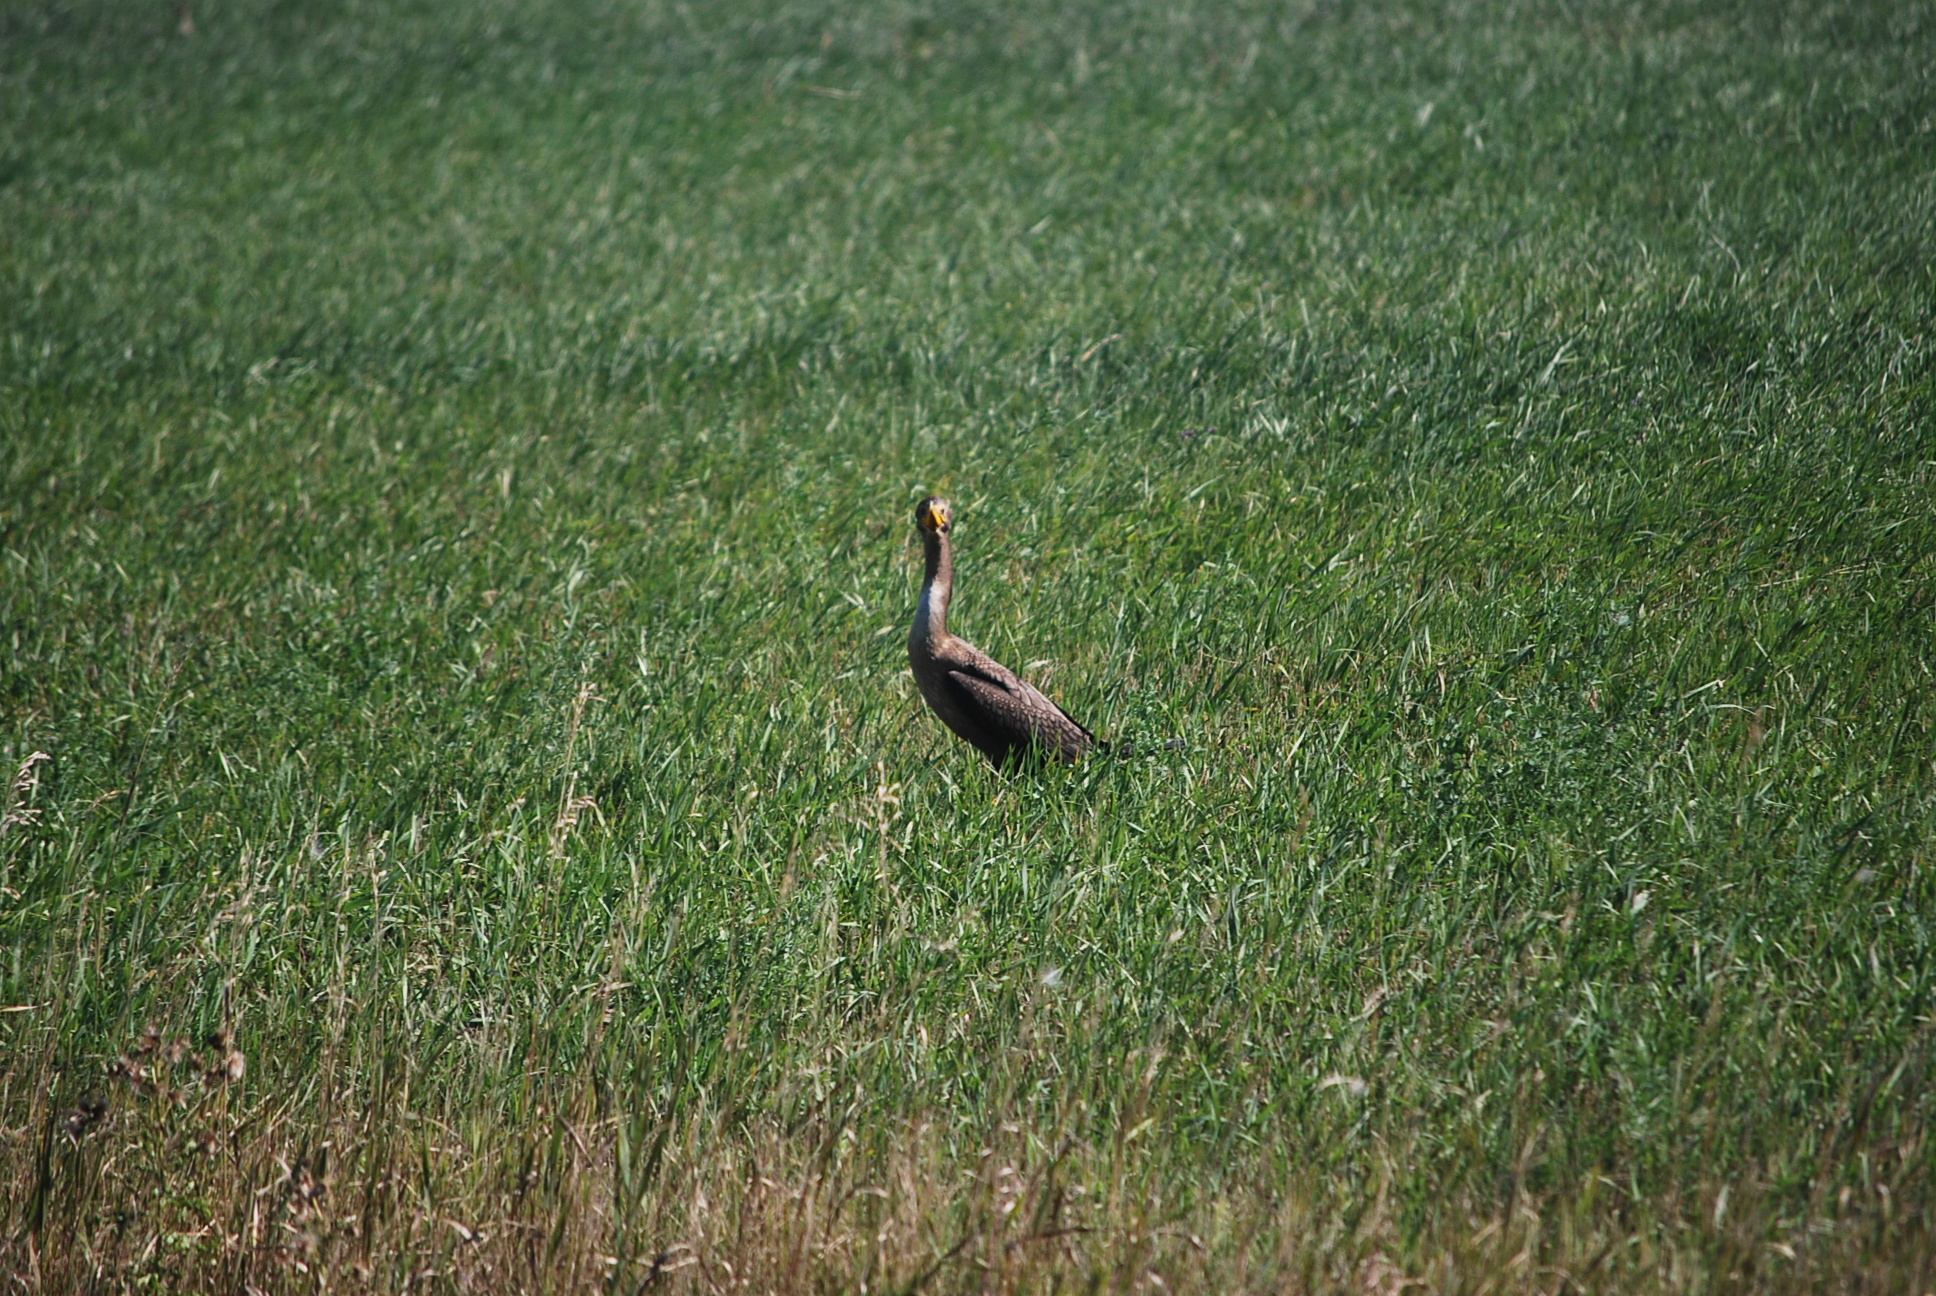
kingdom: Animalia
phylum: Chordata
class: Aves
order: Suliformes
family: Phalacrocoracidae
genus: Phalacrocorax
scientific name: Phalacrocorax auritus
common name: Double-crested cormorant
